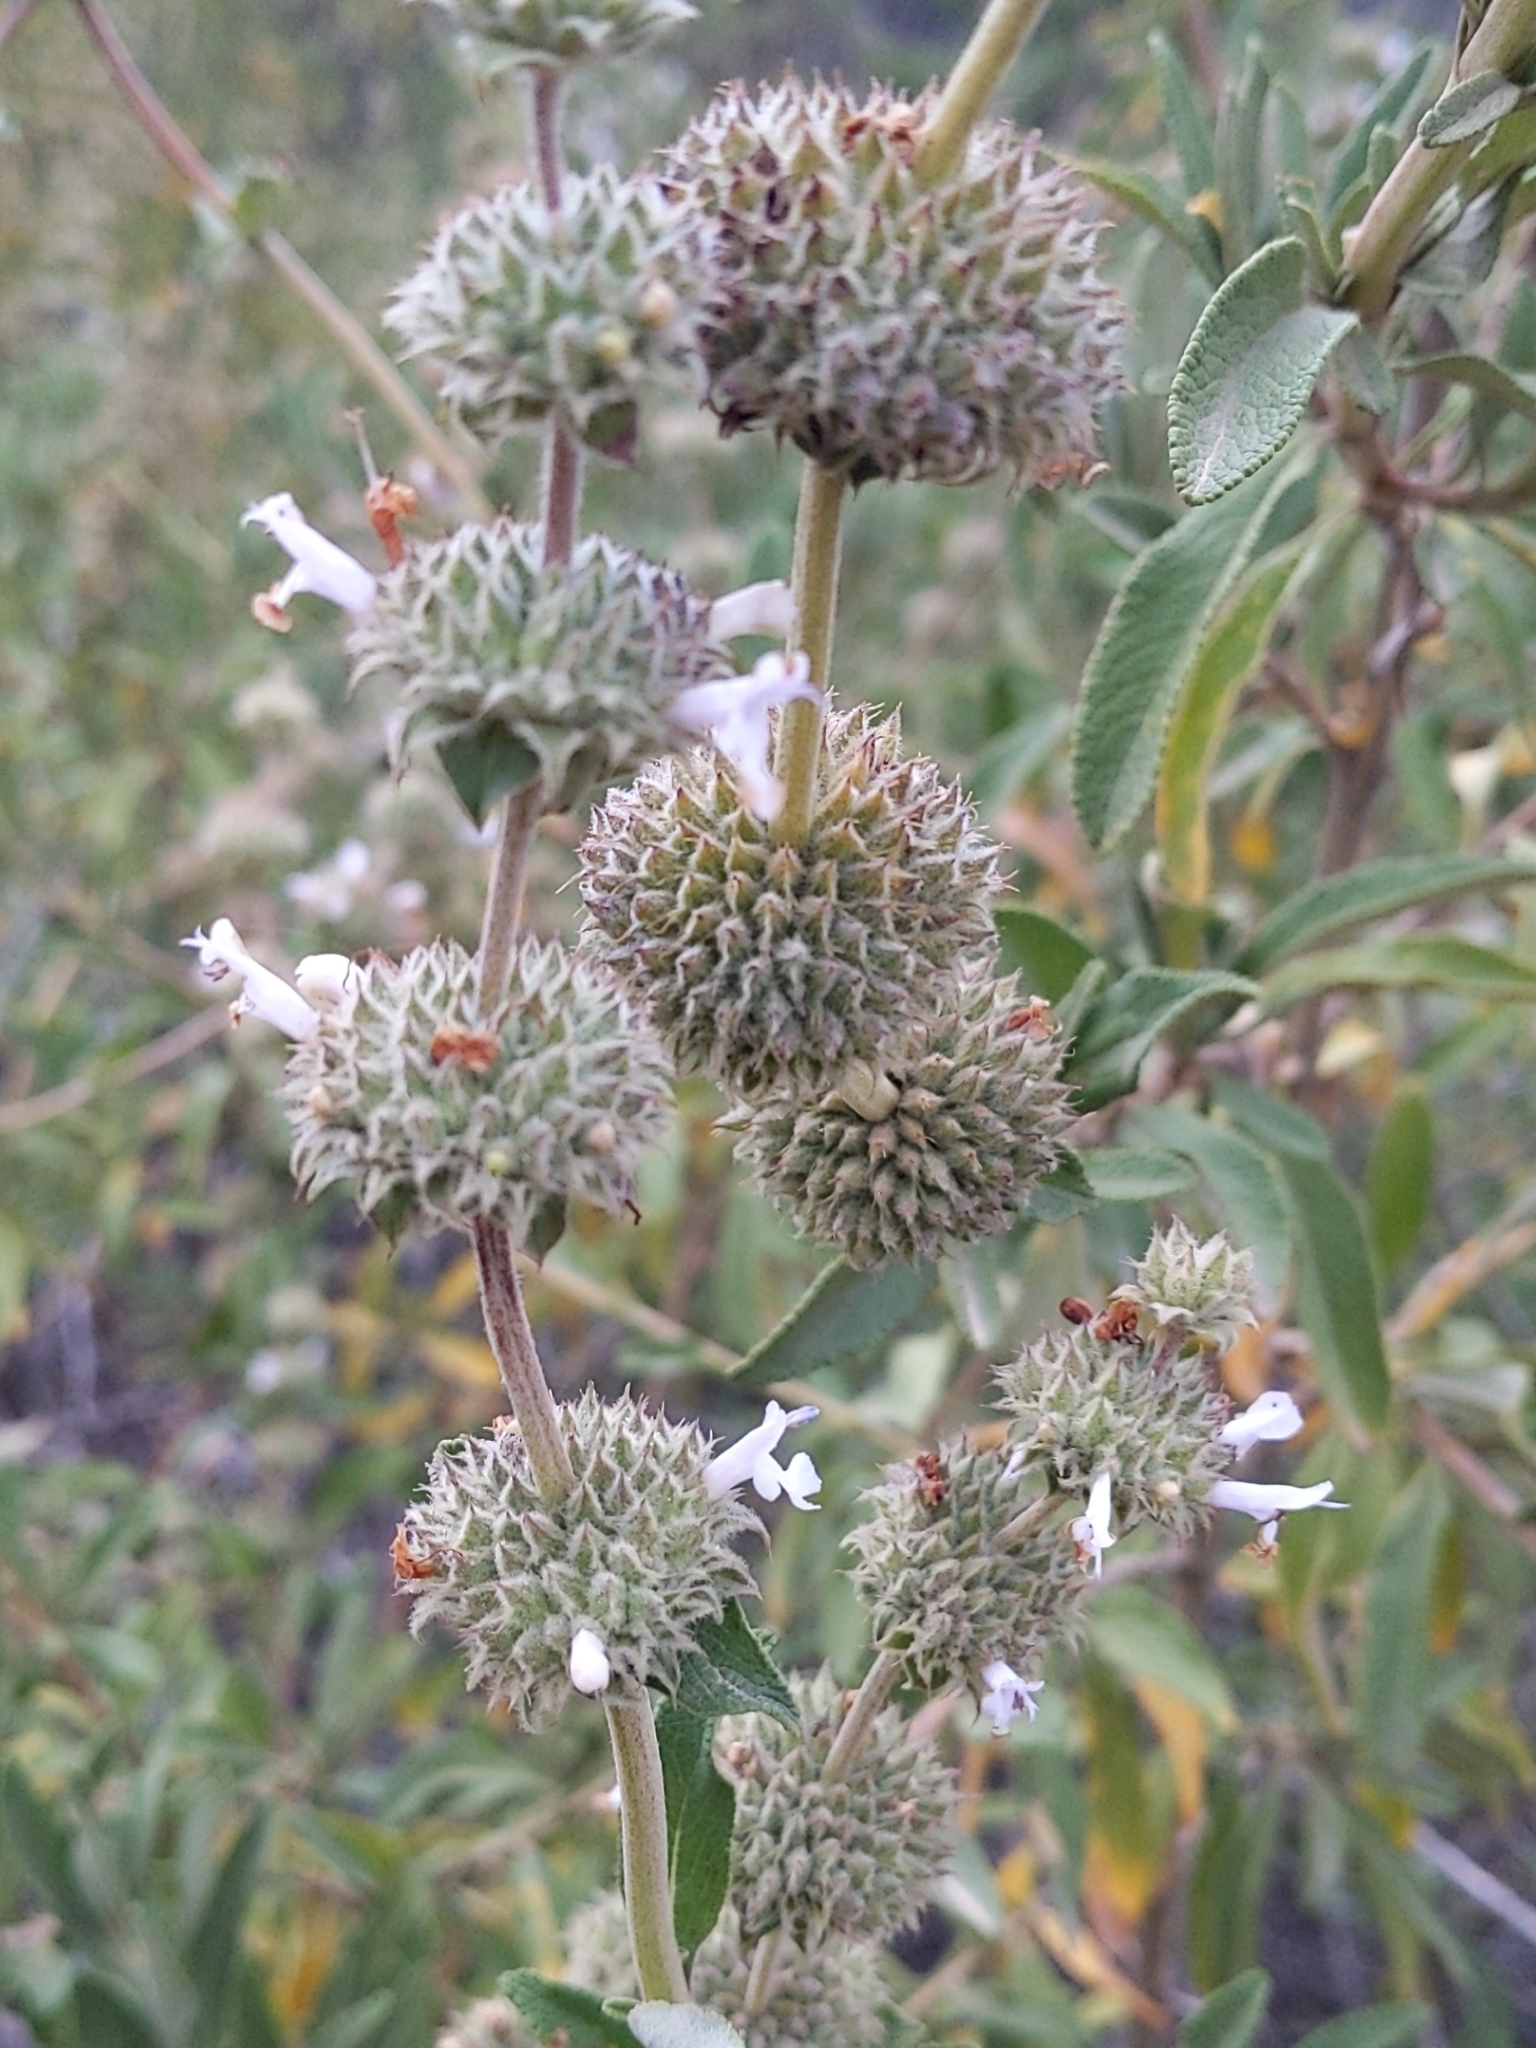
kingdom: Plantae
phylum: Tracheophyta
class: Magnoliopsida
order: Lamiales
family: Lamiaceae
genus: Salvia
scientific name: Salvia mellifera
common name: Black sage
